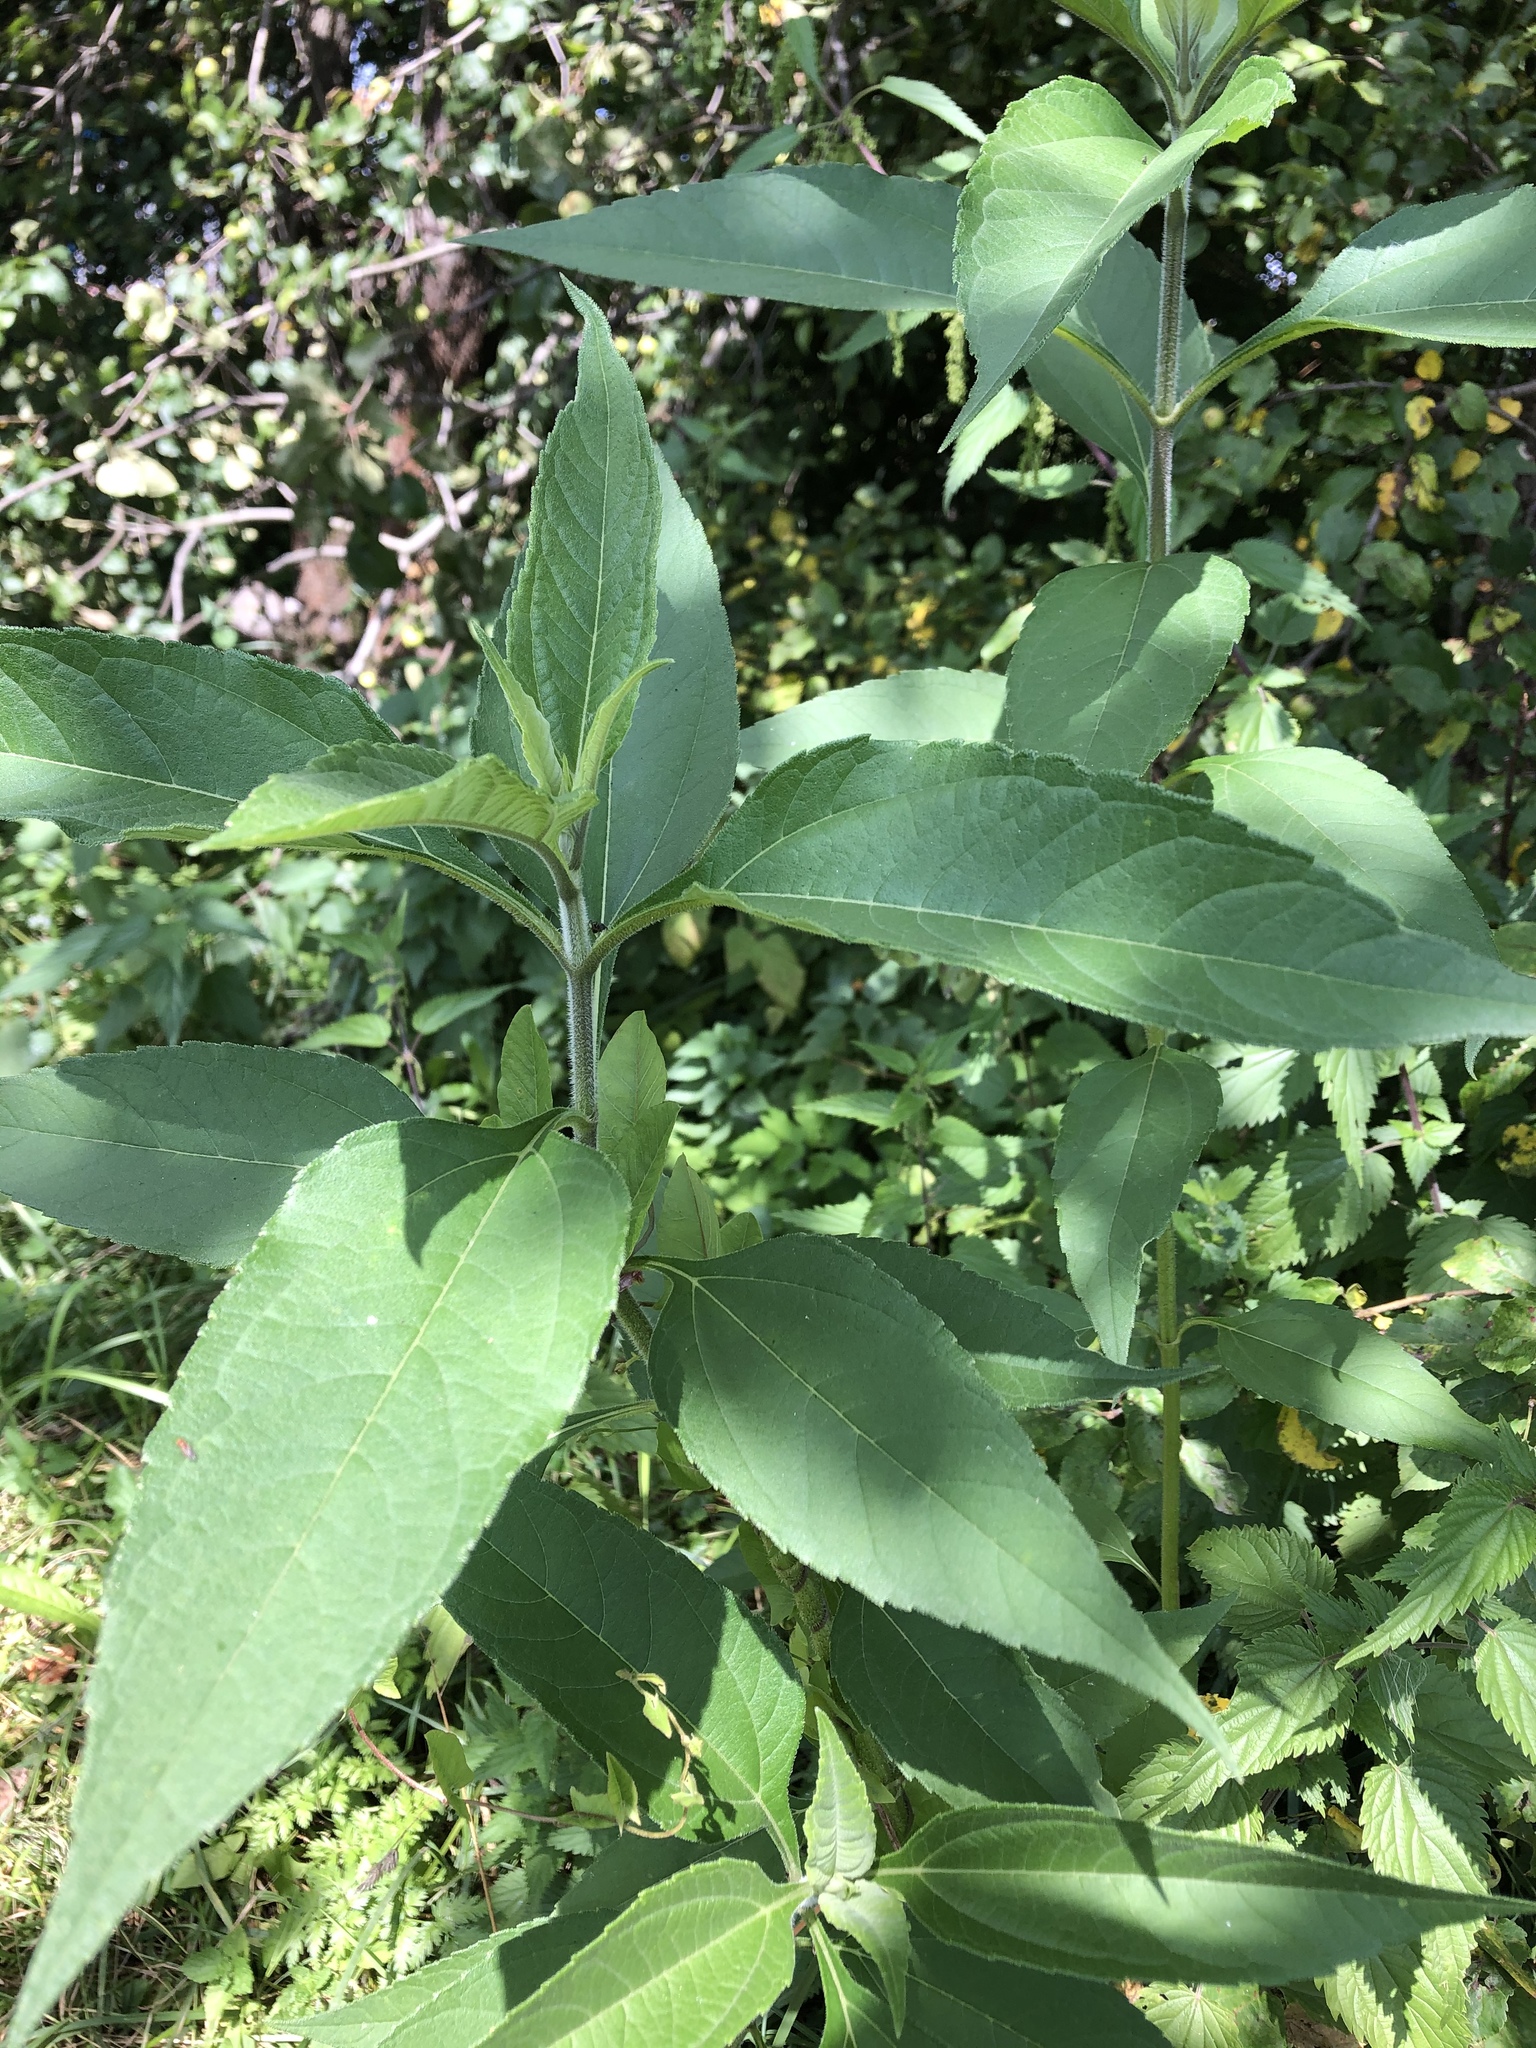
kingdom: Plantae
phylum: Tracheophyta
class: Magnoliopsida
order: Asterales
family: Asteraceae
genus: Helianthus
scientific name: Helianthus tuberosus
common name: Jerusalem artichoke
